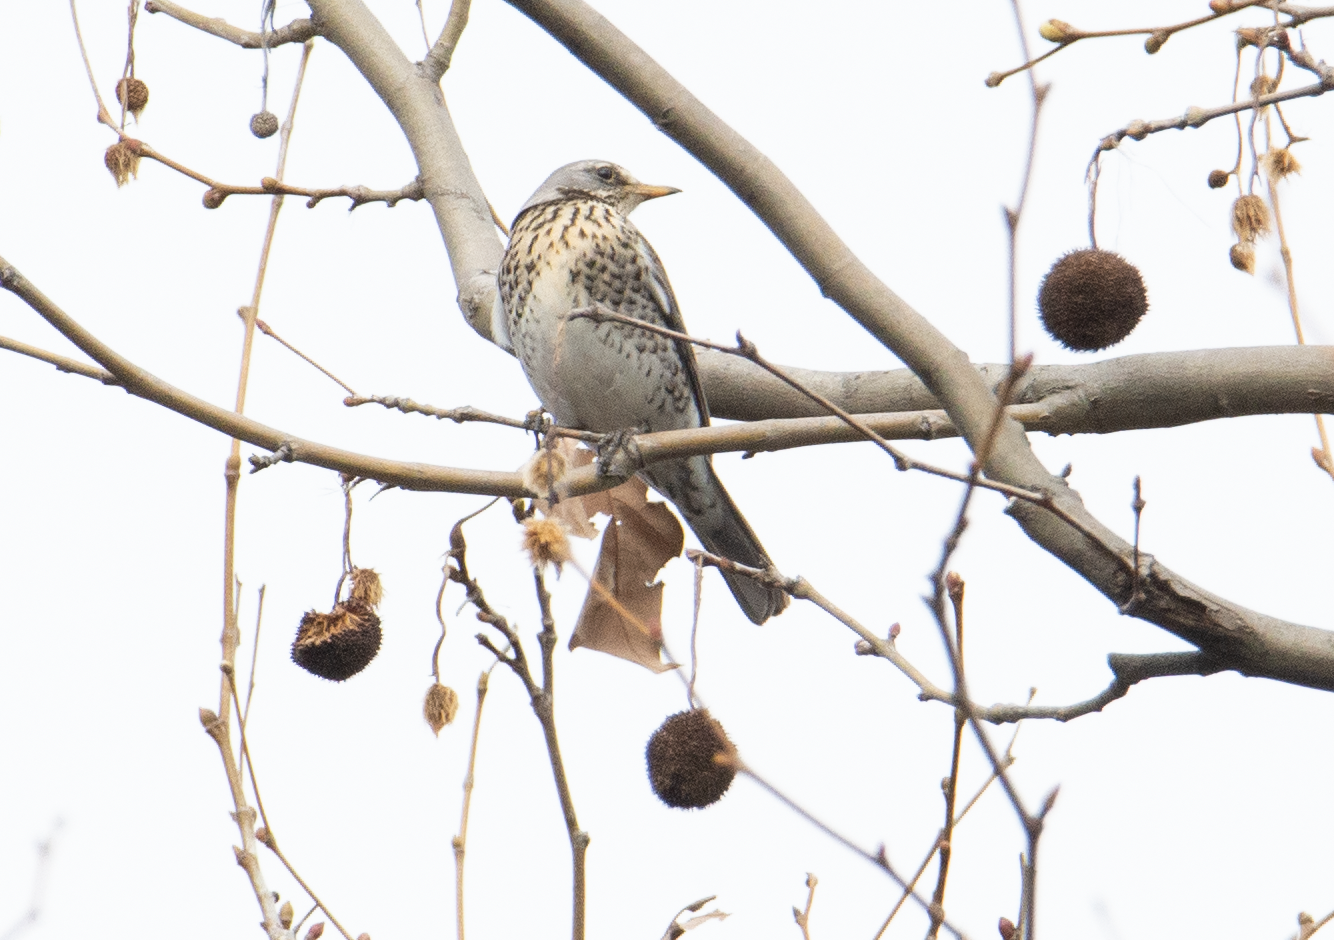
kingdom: Animalia
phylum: Chordata
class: Aves
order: Passeriformes
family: Turdidae
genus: Turdus
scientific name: Turdus pilaris
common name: Fieldfare
